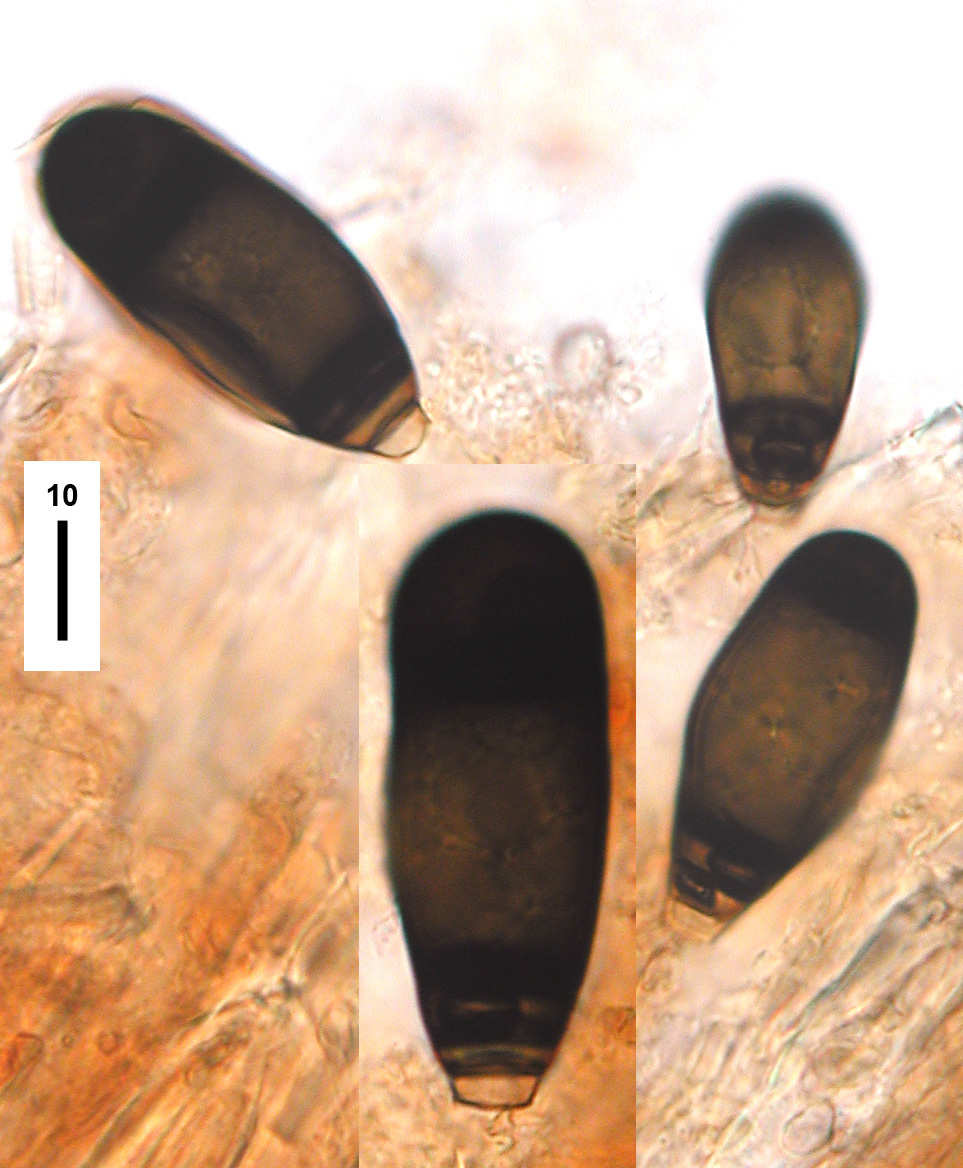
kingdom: Fungi
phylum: Ascomycota
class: Dothideomycetes
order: Pleosporales
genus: Bactrodesmium
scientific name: Bactrodesmium abruptum
